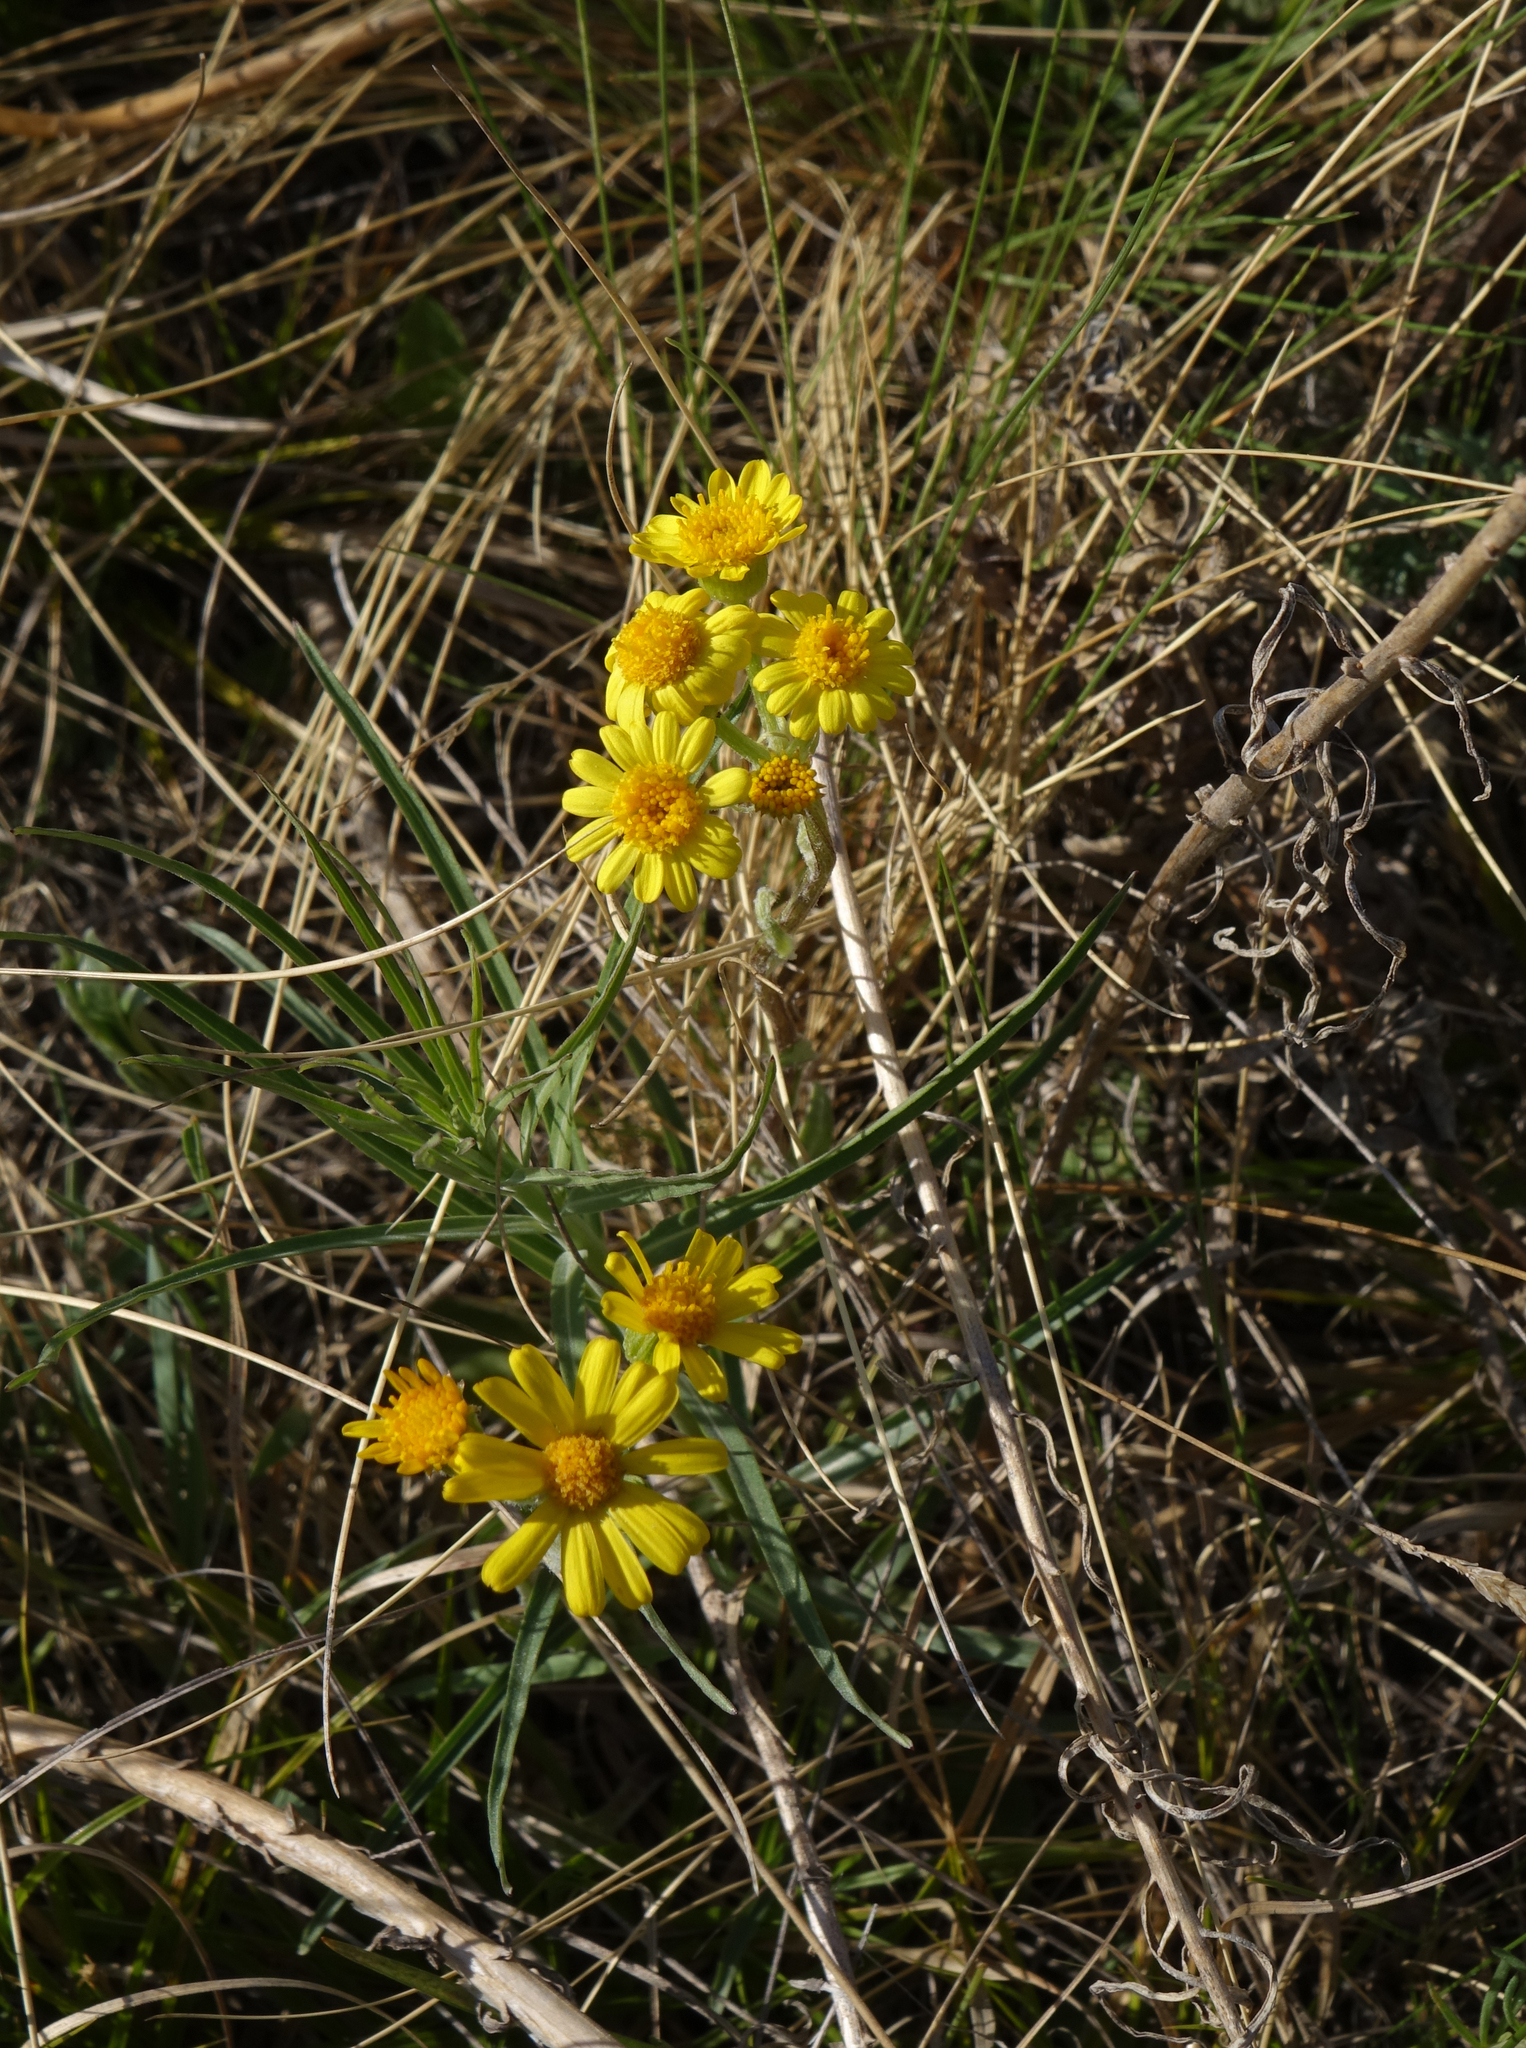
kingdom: Plantae
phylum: Tracheophyta
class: Magnoliopsida
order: Asterales
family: Asteraceae
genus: Tephroseris
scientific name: Tephroseris integrifolia
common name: Field fleawort
